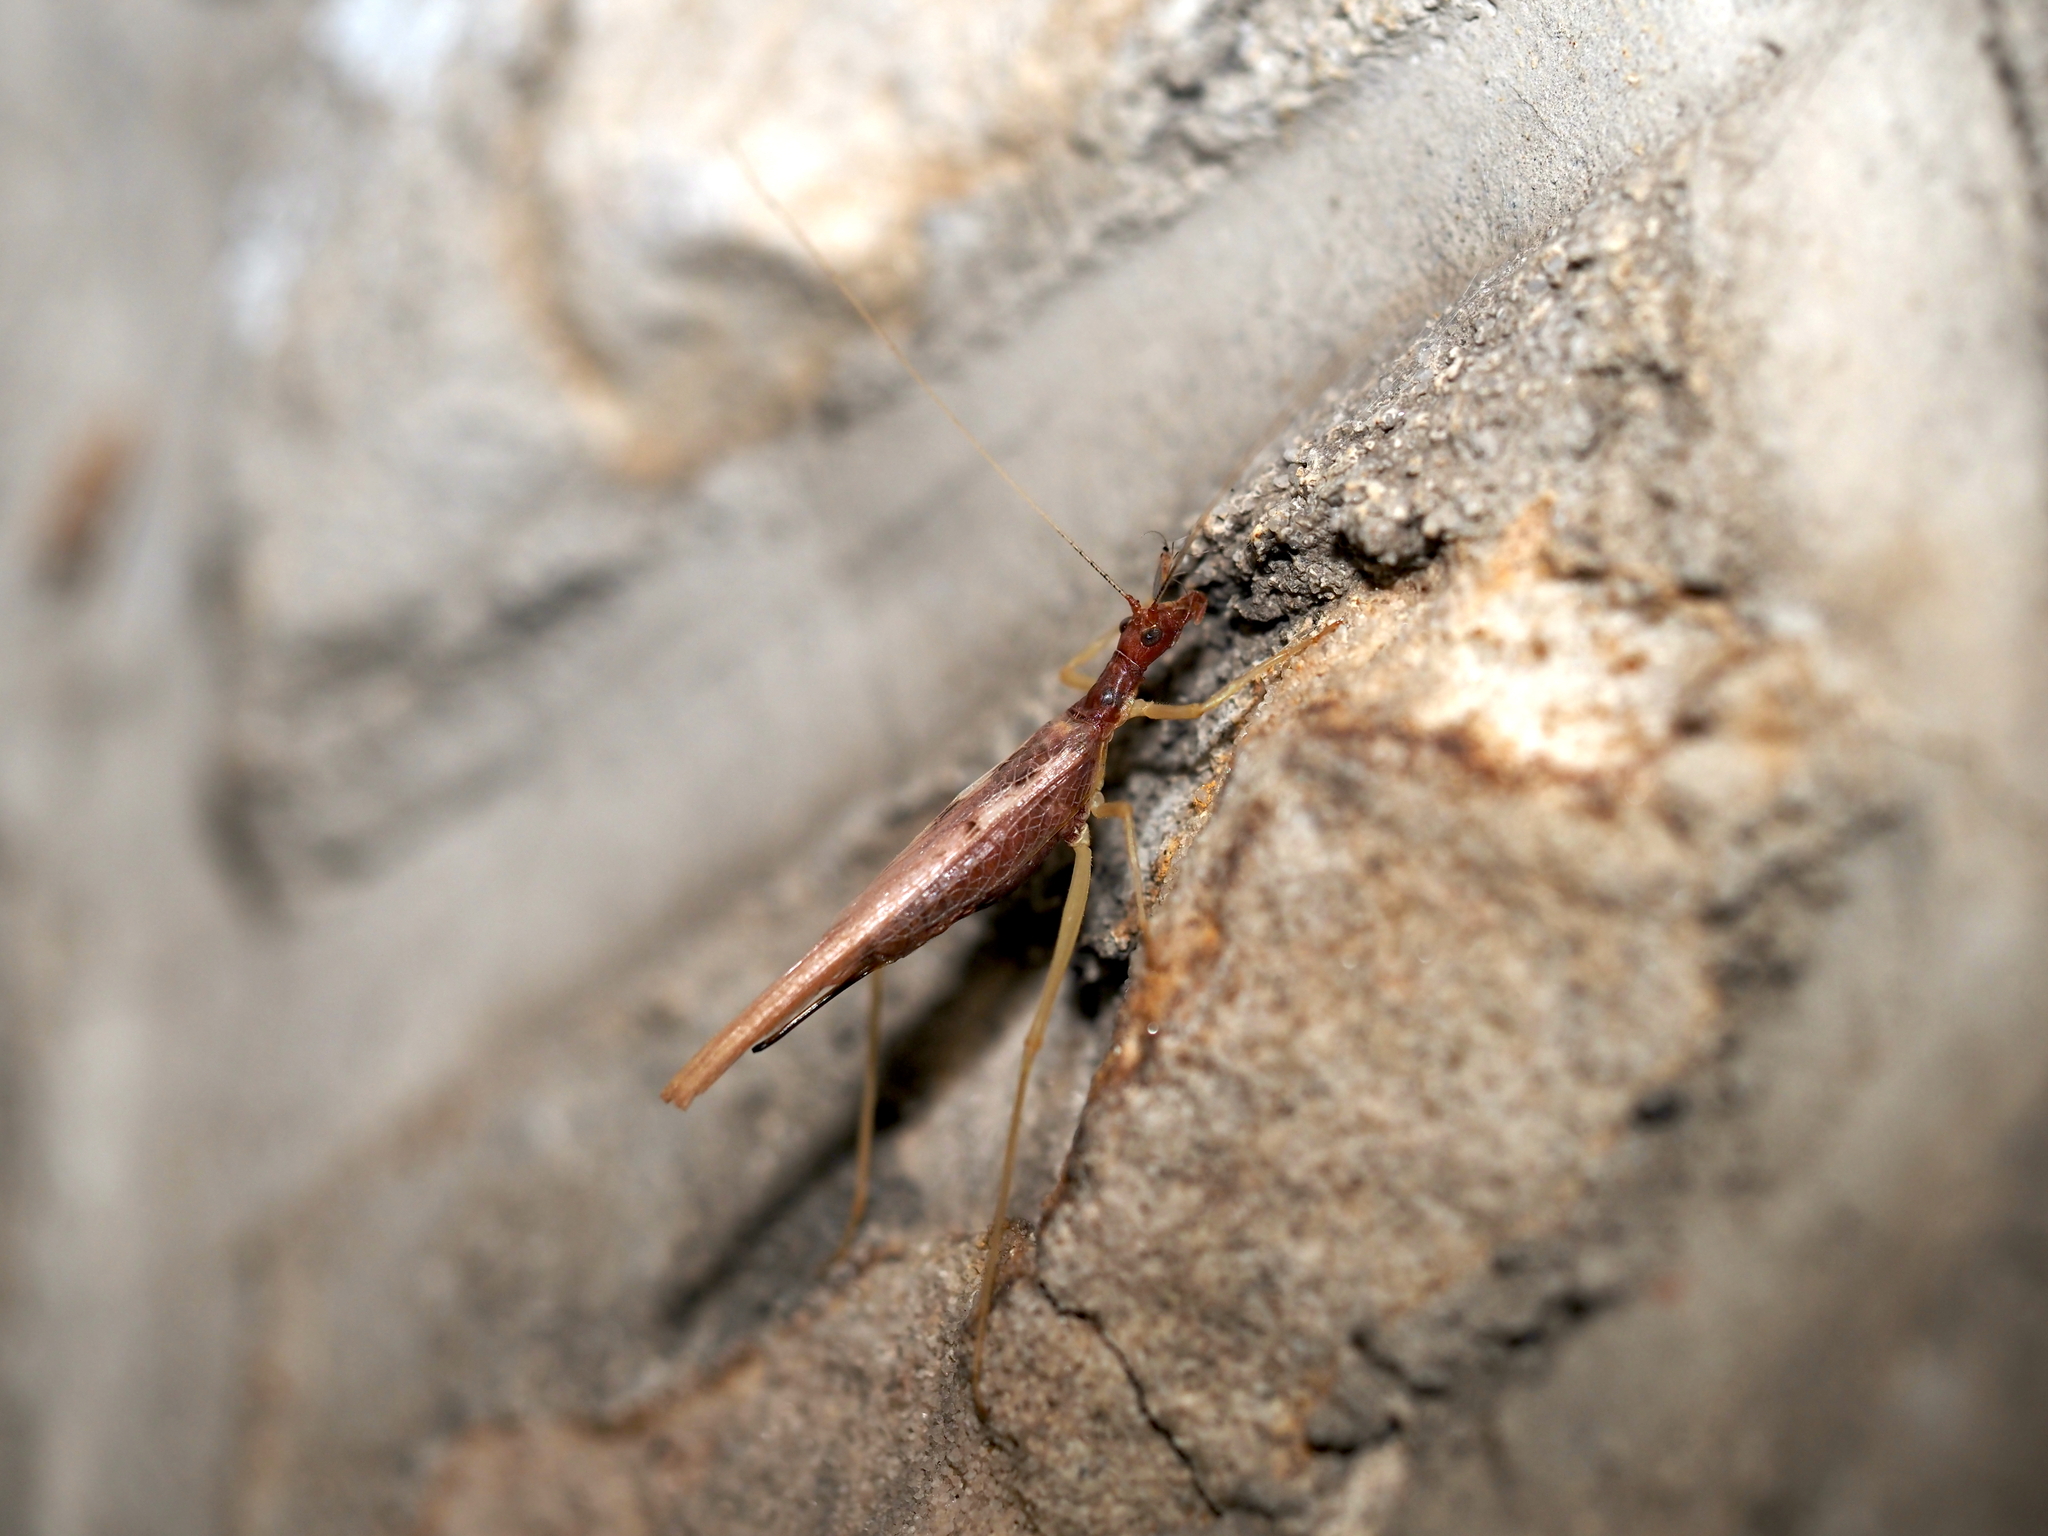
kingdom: Animalia
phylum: Arthropoda
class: Insecta
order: Orthoptera
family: Gryllidae
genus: Neoxabea
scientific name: Neoxabea bipunctata
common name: Two-spotted tree cricket
